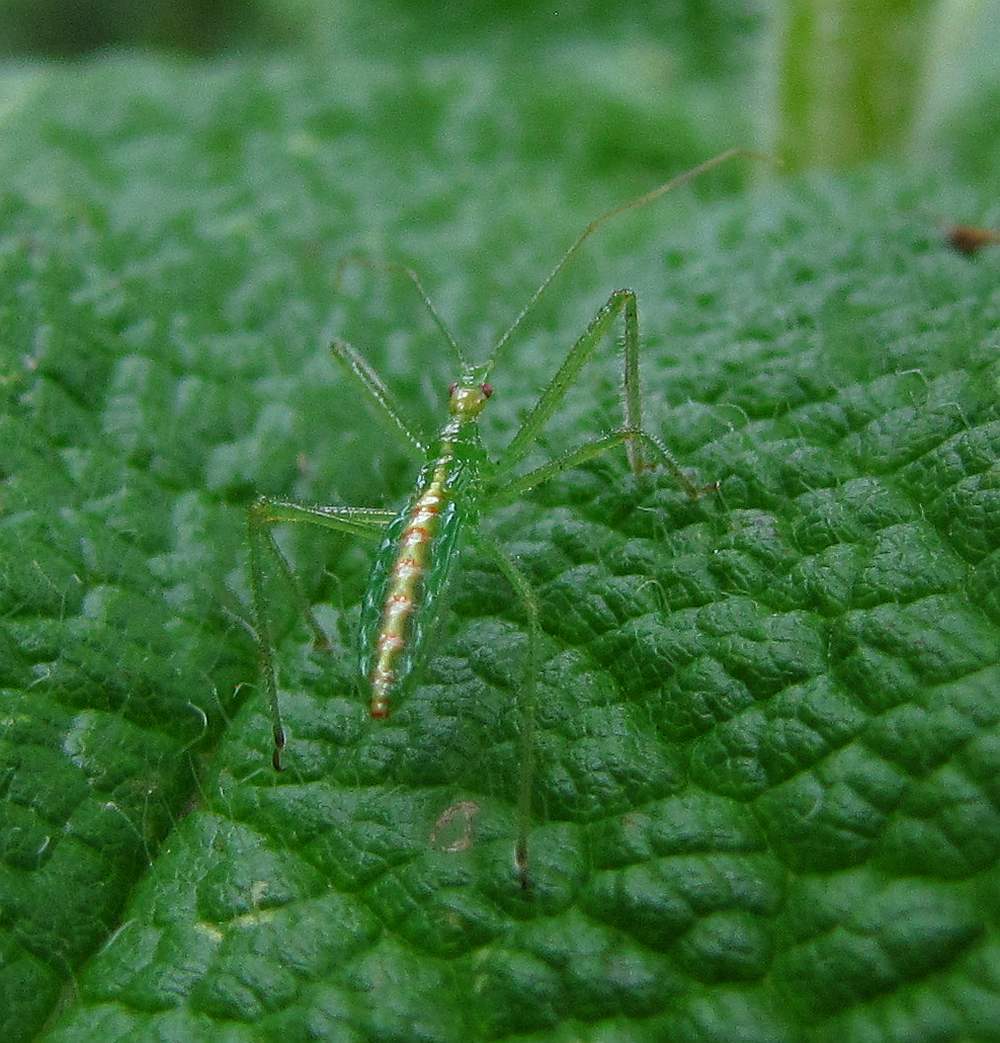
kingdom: Animalia
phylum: Arthropoda
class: Insecta
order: Hemiptera
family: Reduviidae
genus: Zelus
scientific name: Zelus luridus
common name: Pale green assassin bug
